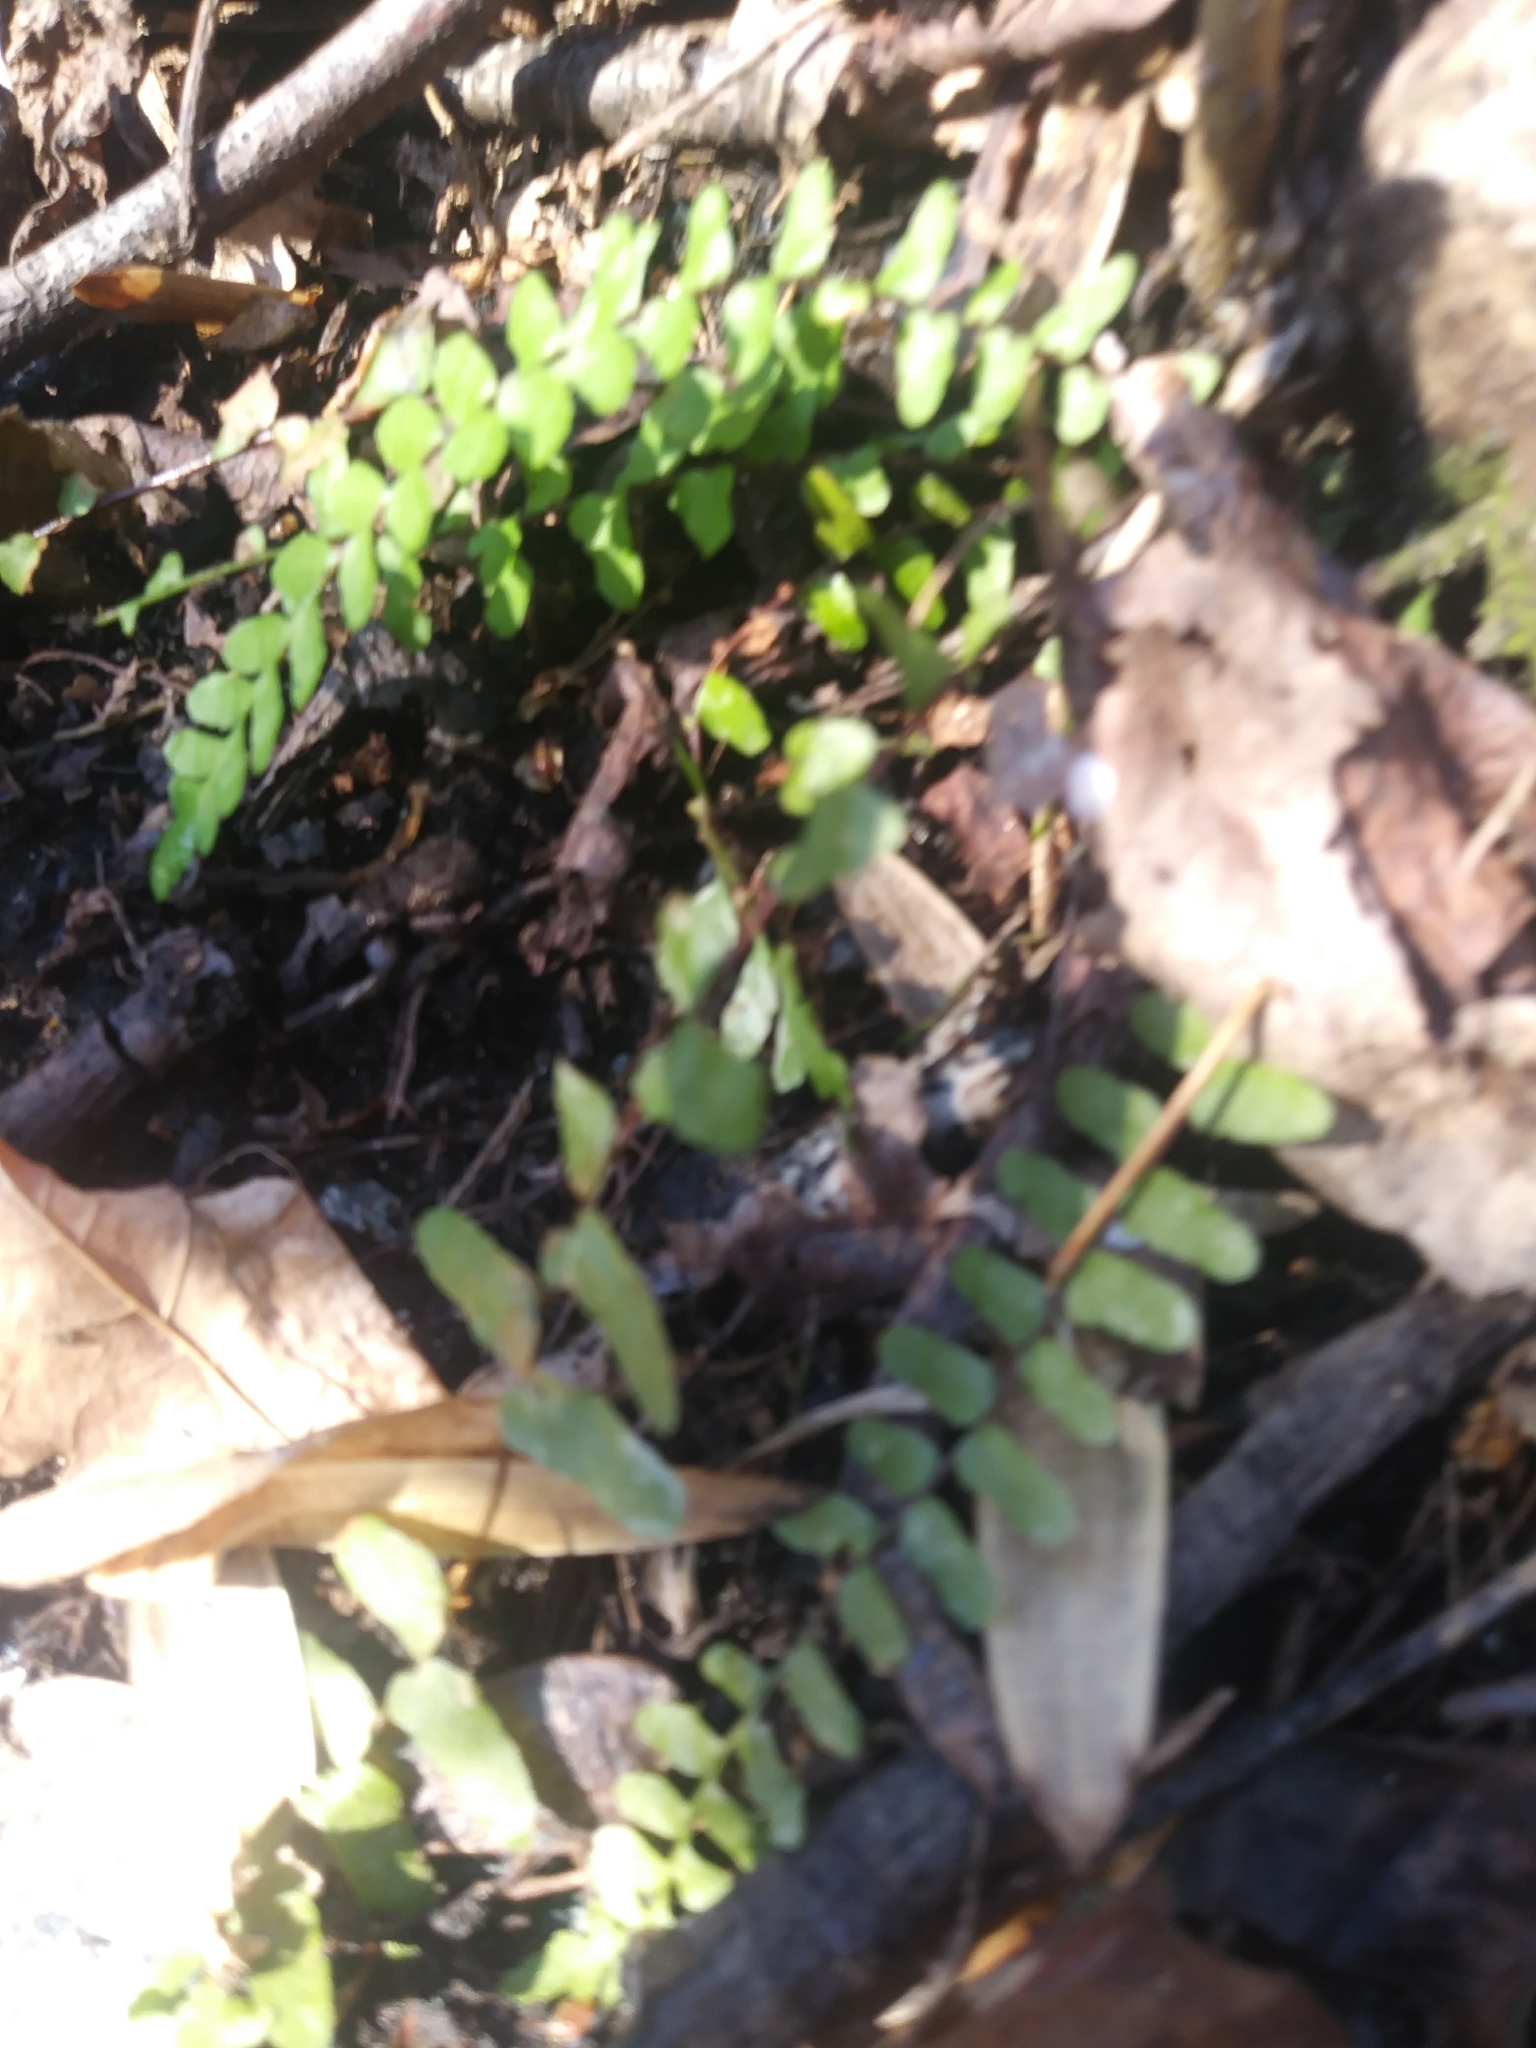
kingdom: Plantae
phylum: Tracheophyta
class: Polypodiopsida
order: Polypodiales
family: Aspleniaceae
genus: Asplenium
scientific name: Asplenium platyneuron
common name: Ebony spleenwort
